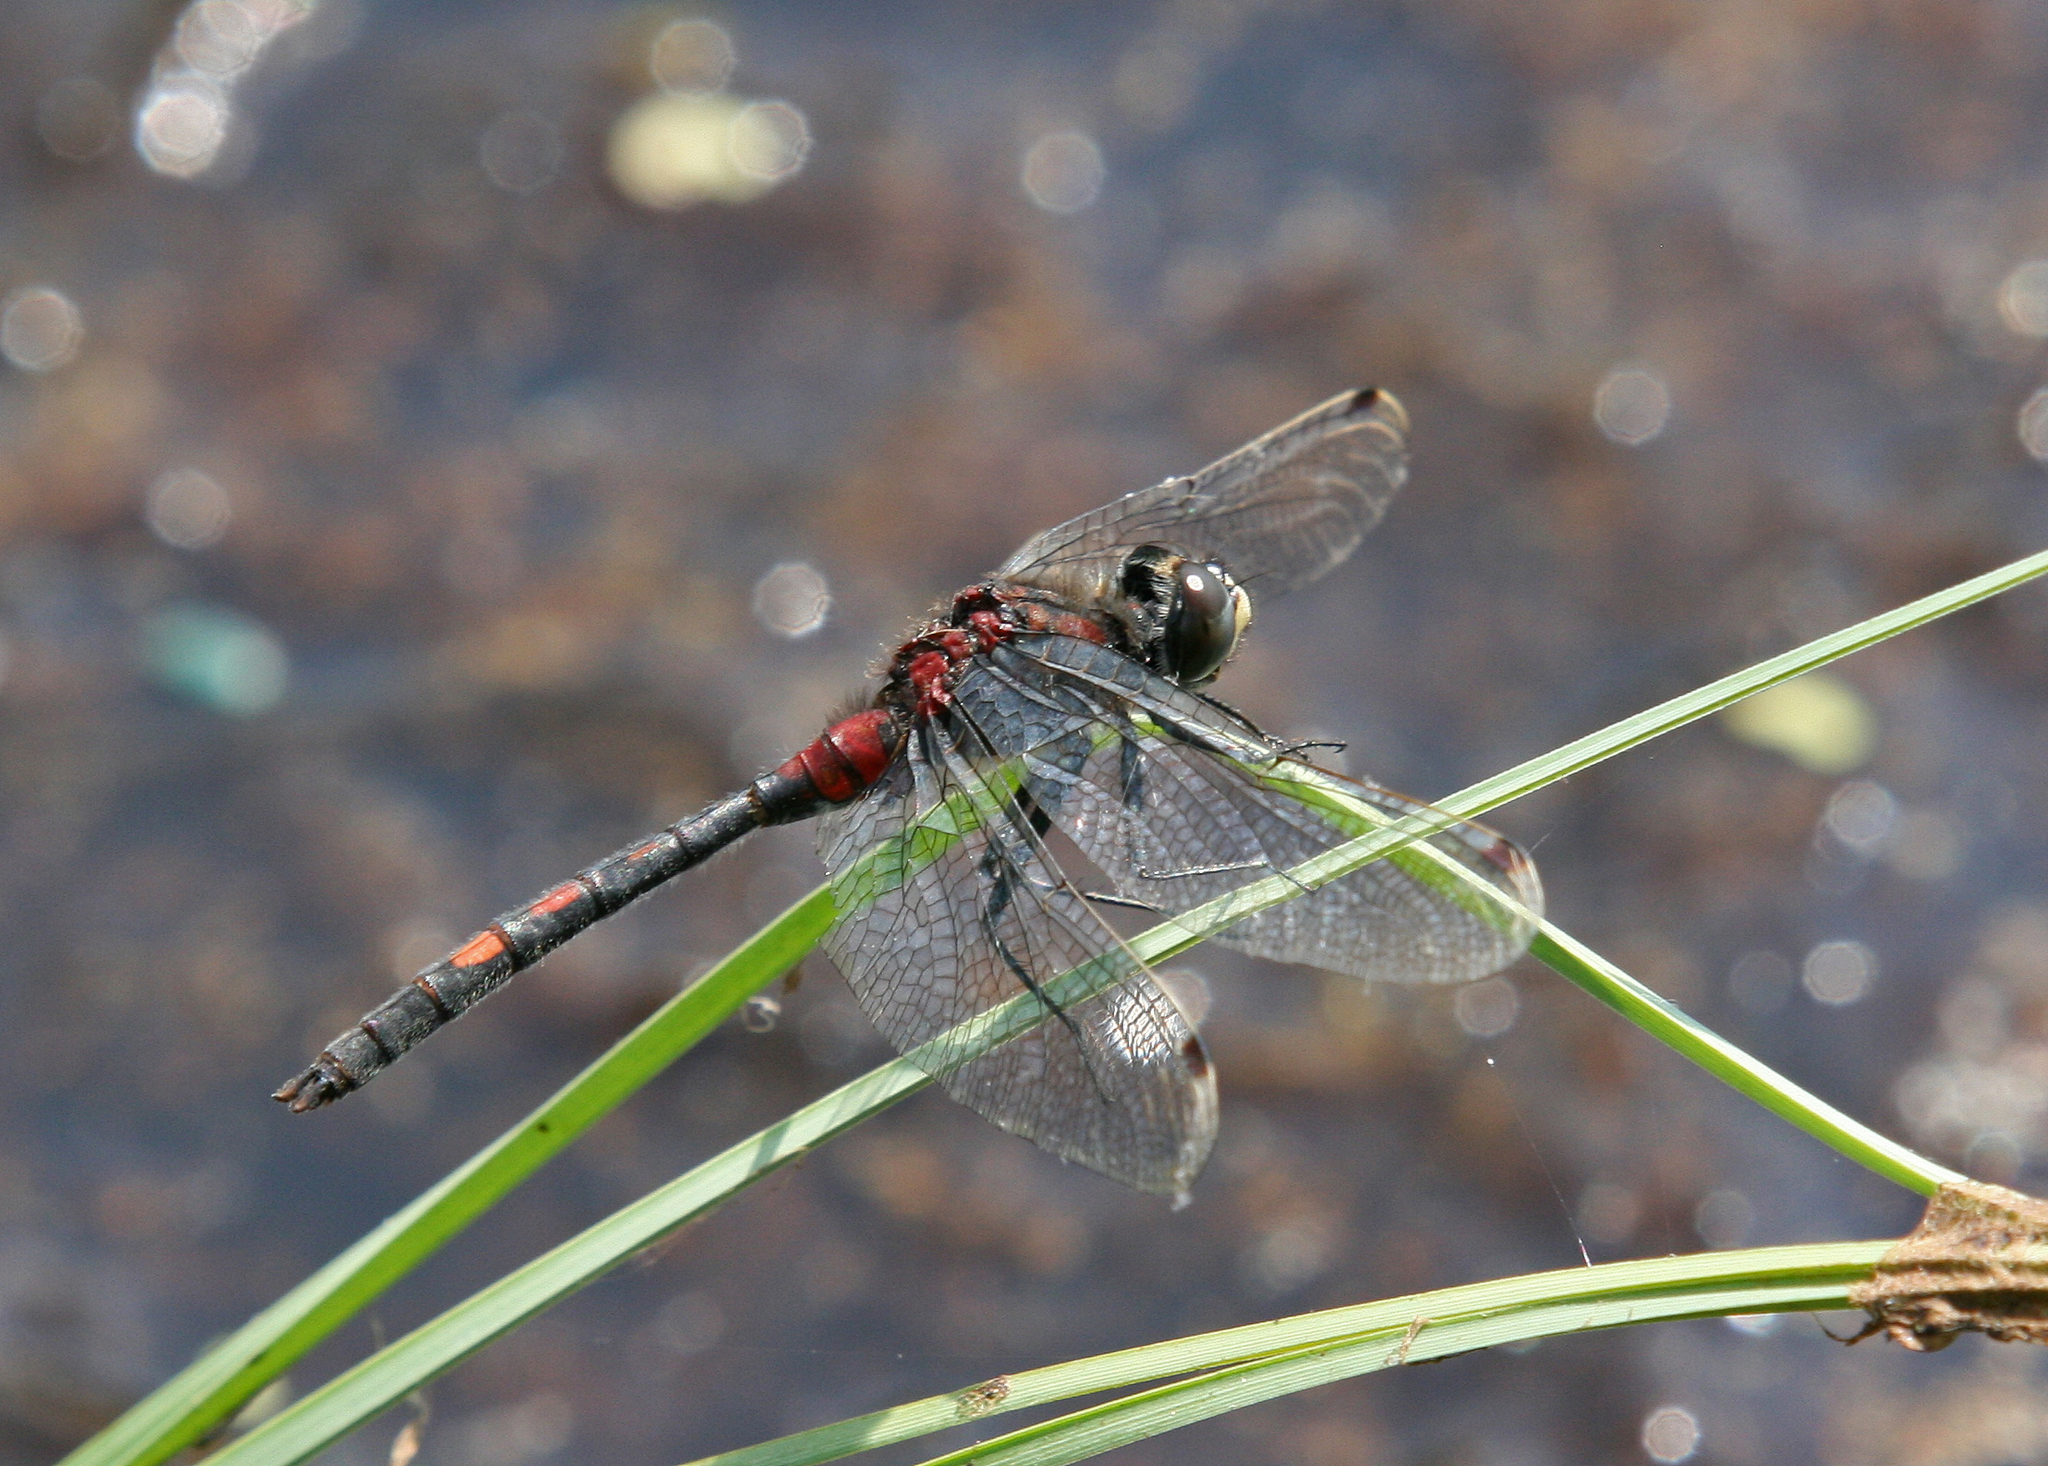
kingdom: Animalia
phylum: Arthropoda
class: Insecta
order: Odonata
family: Libellulidae
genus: Leucorrhinia
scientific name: Leucorrhinia dubia
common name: White-faced darter
